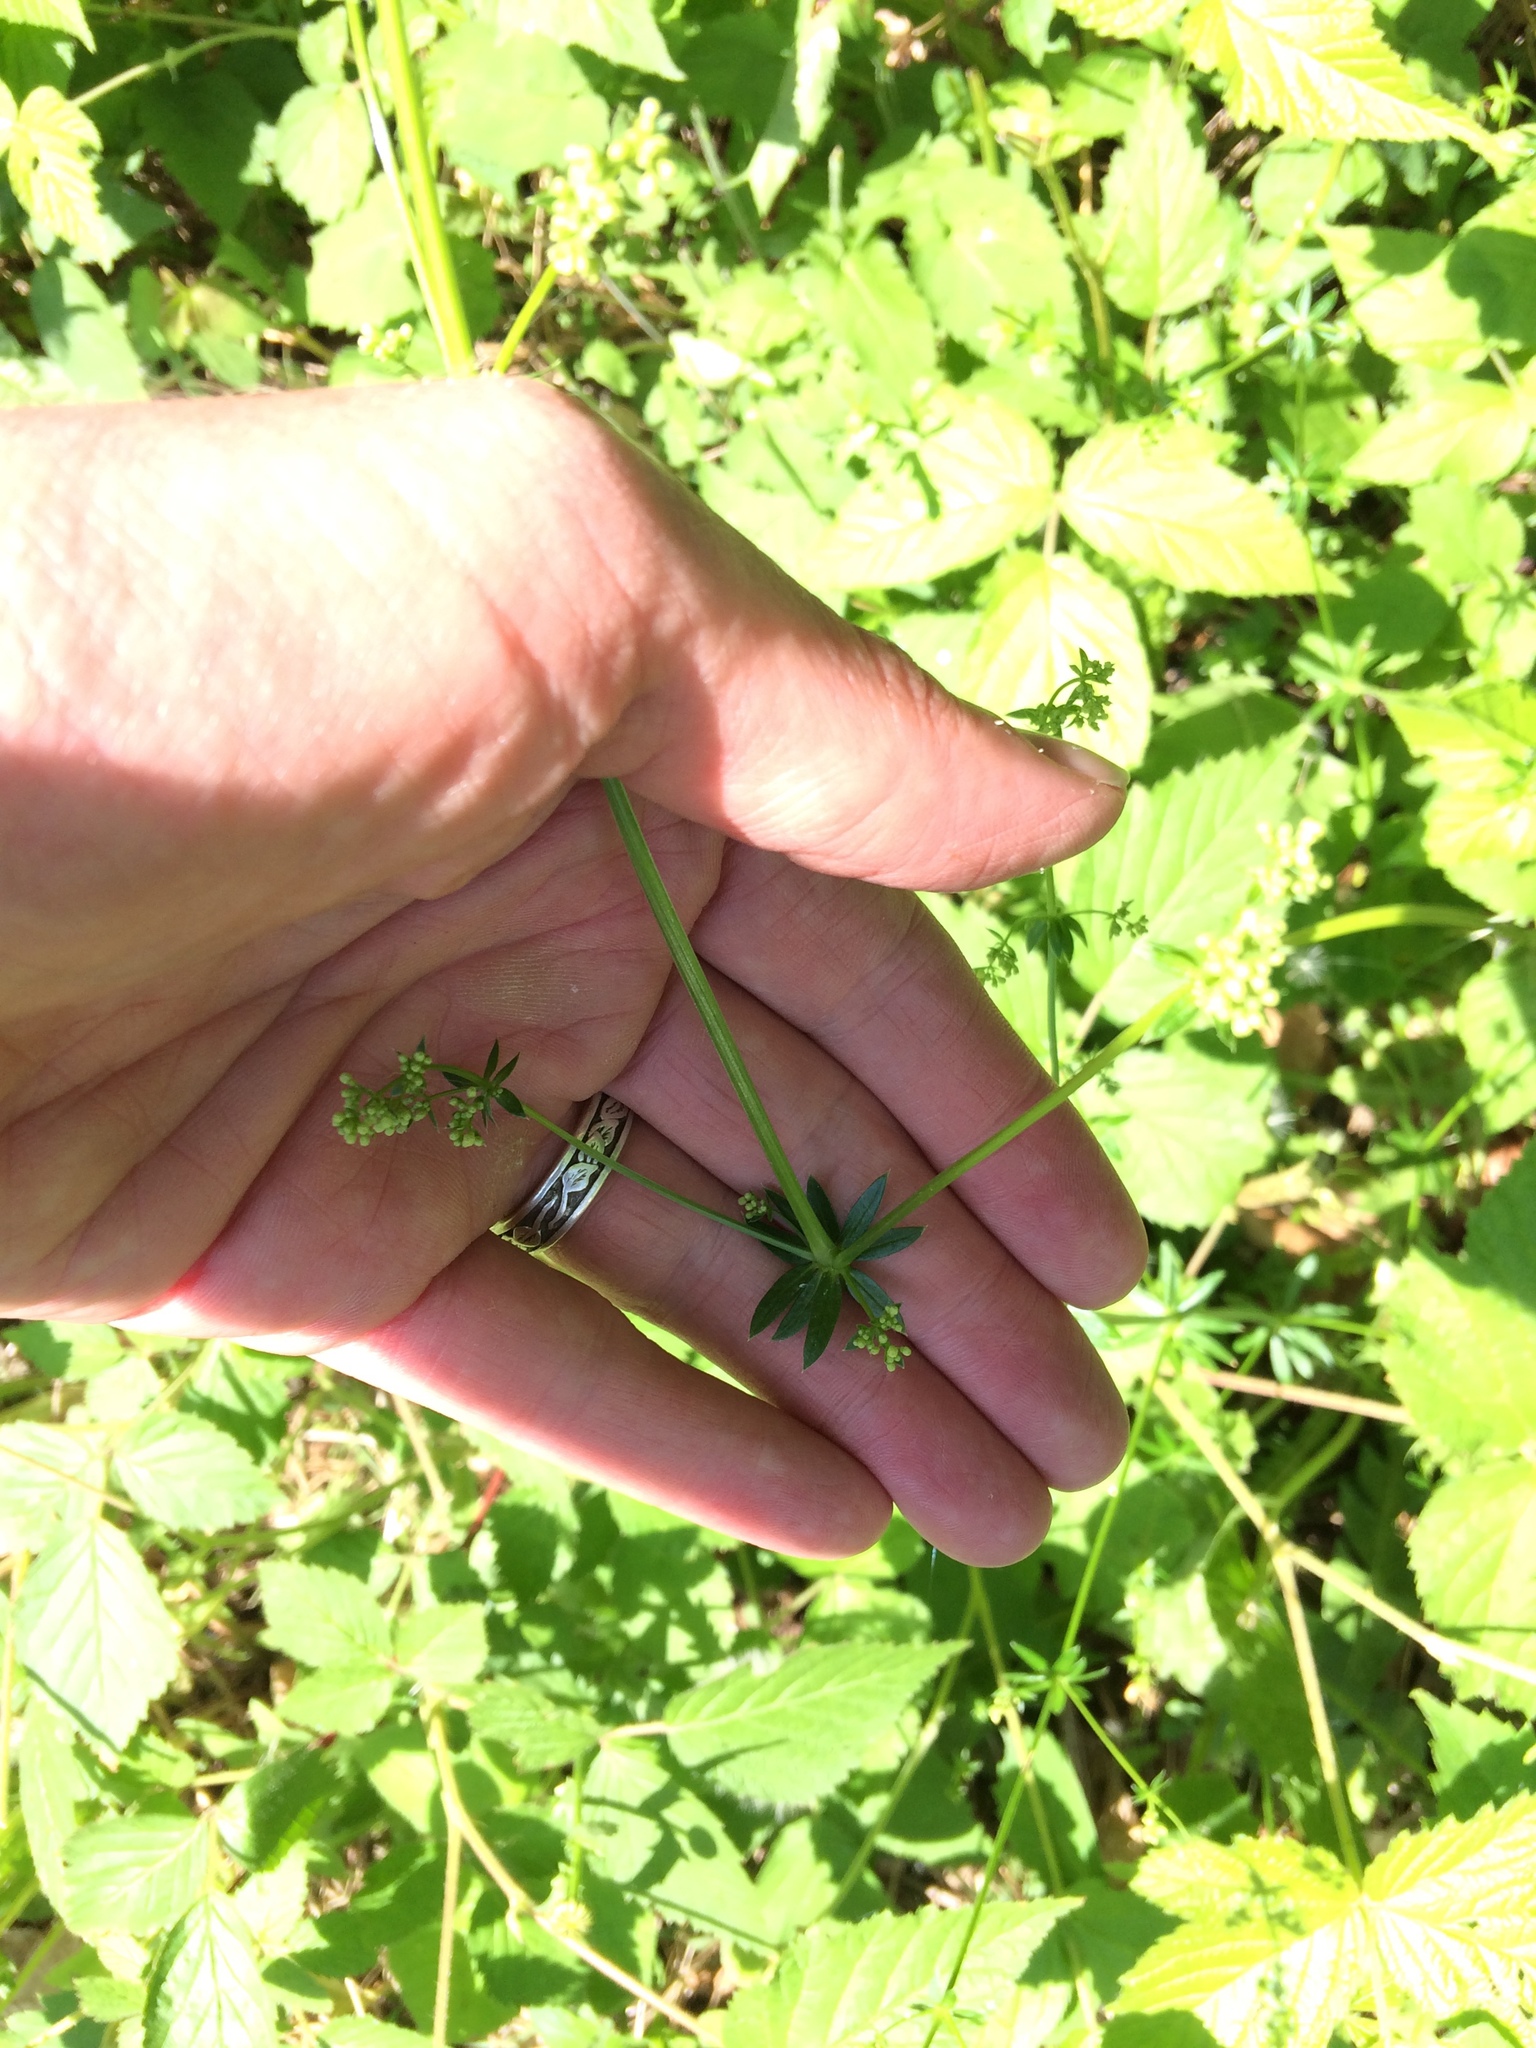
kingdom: Plantae
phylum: Tracheophyta
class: Magnoliopsida
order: Gentianales
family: Rubiaceae
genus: Galium
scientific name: Galium mollugo
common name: Hedge bedstraw
